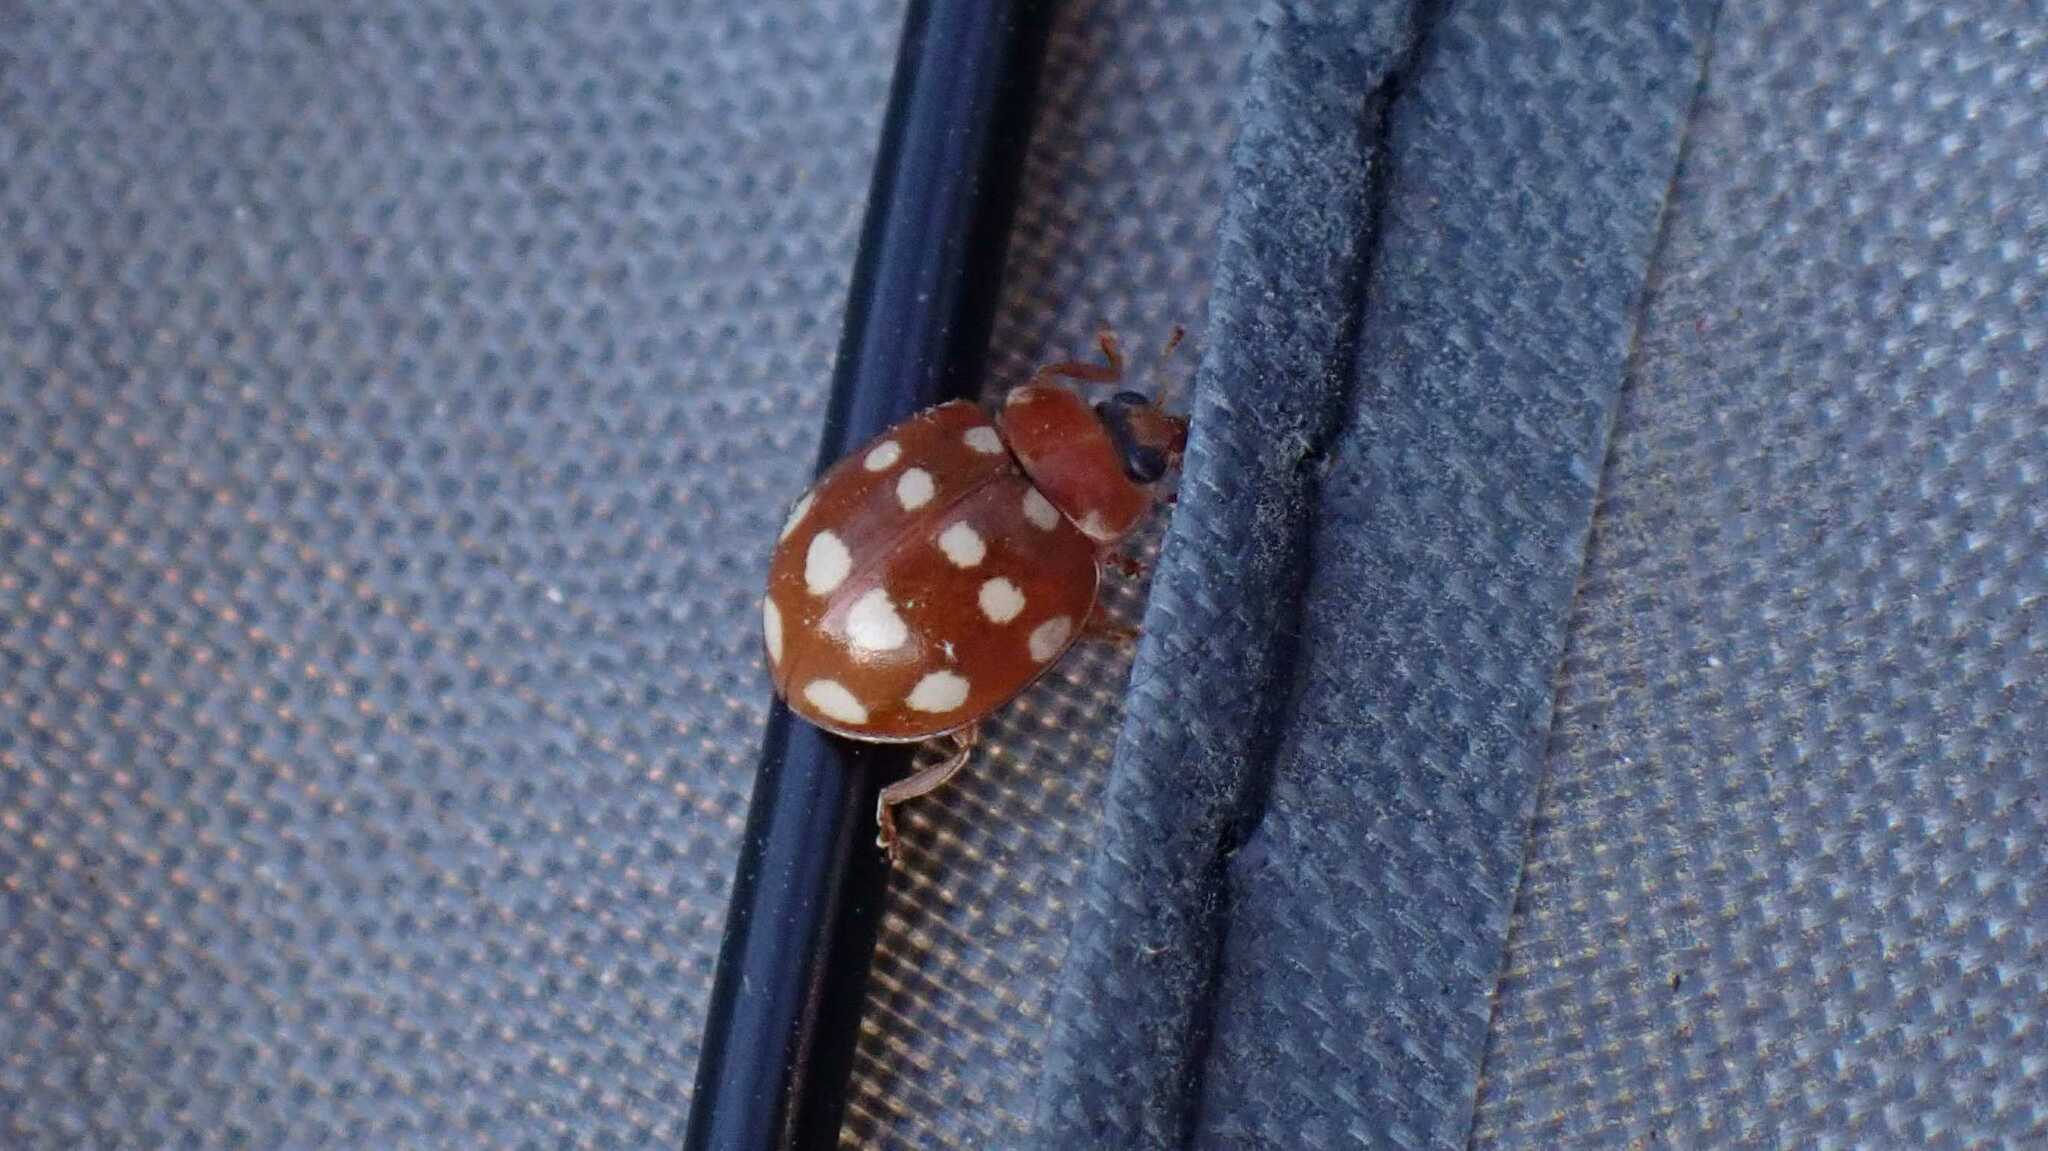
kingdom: Animalia
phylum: Arthropoda
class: Insecta
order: Coleoptera
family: Coccinellidae
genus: Calvia
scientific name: Calvia quatuordecimguttata
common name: Cream-spot ladybird
